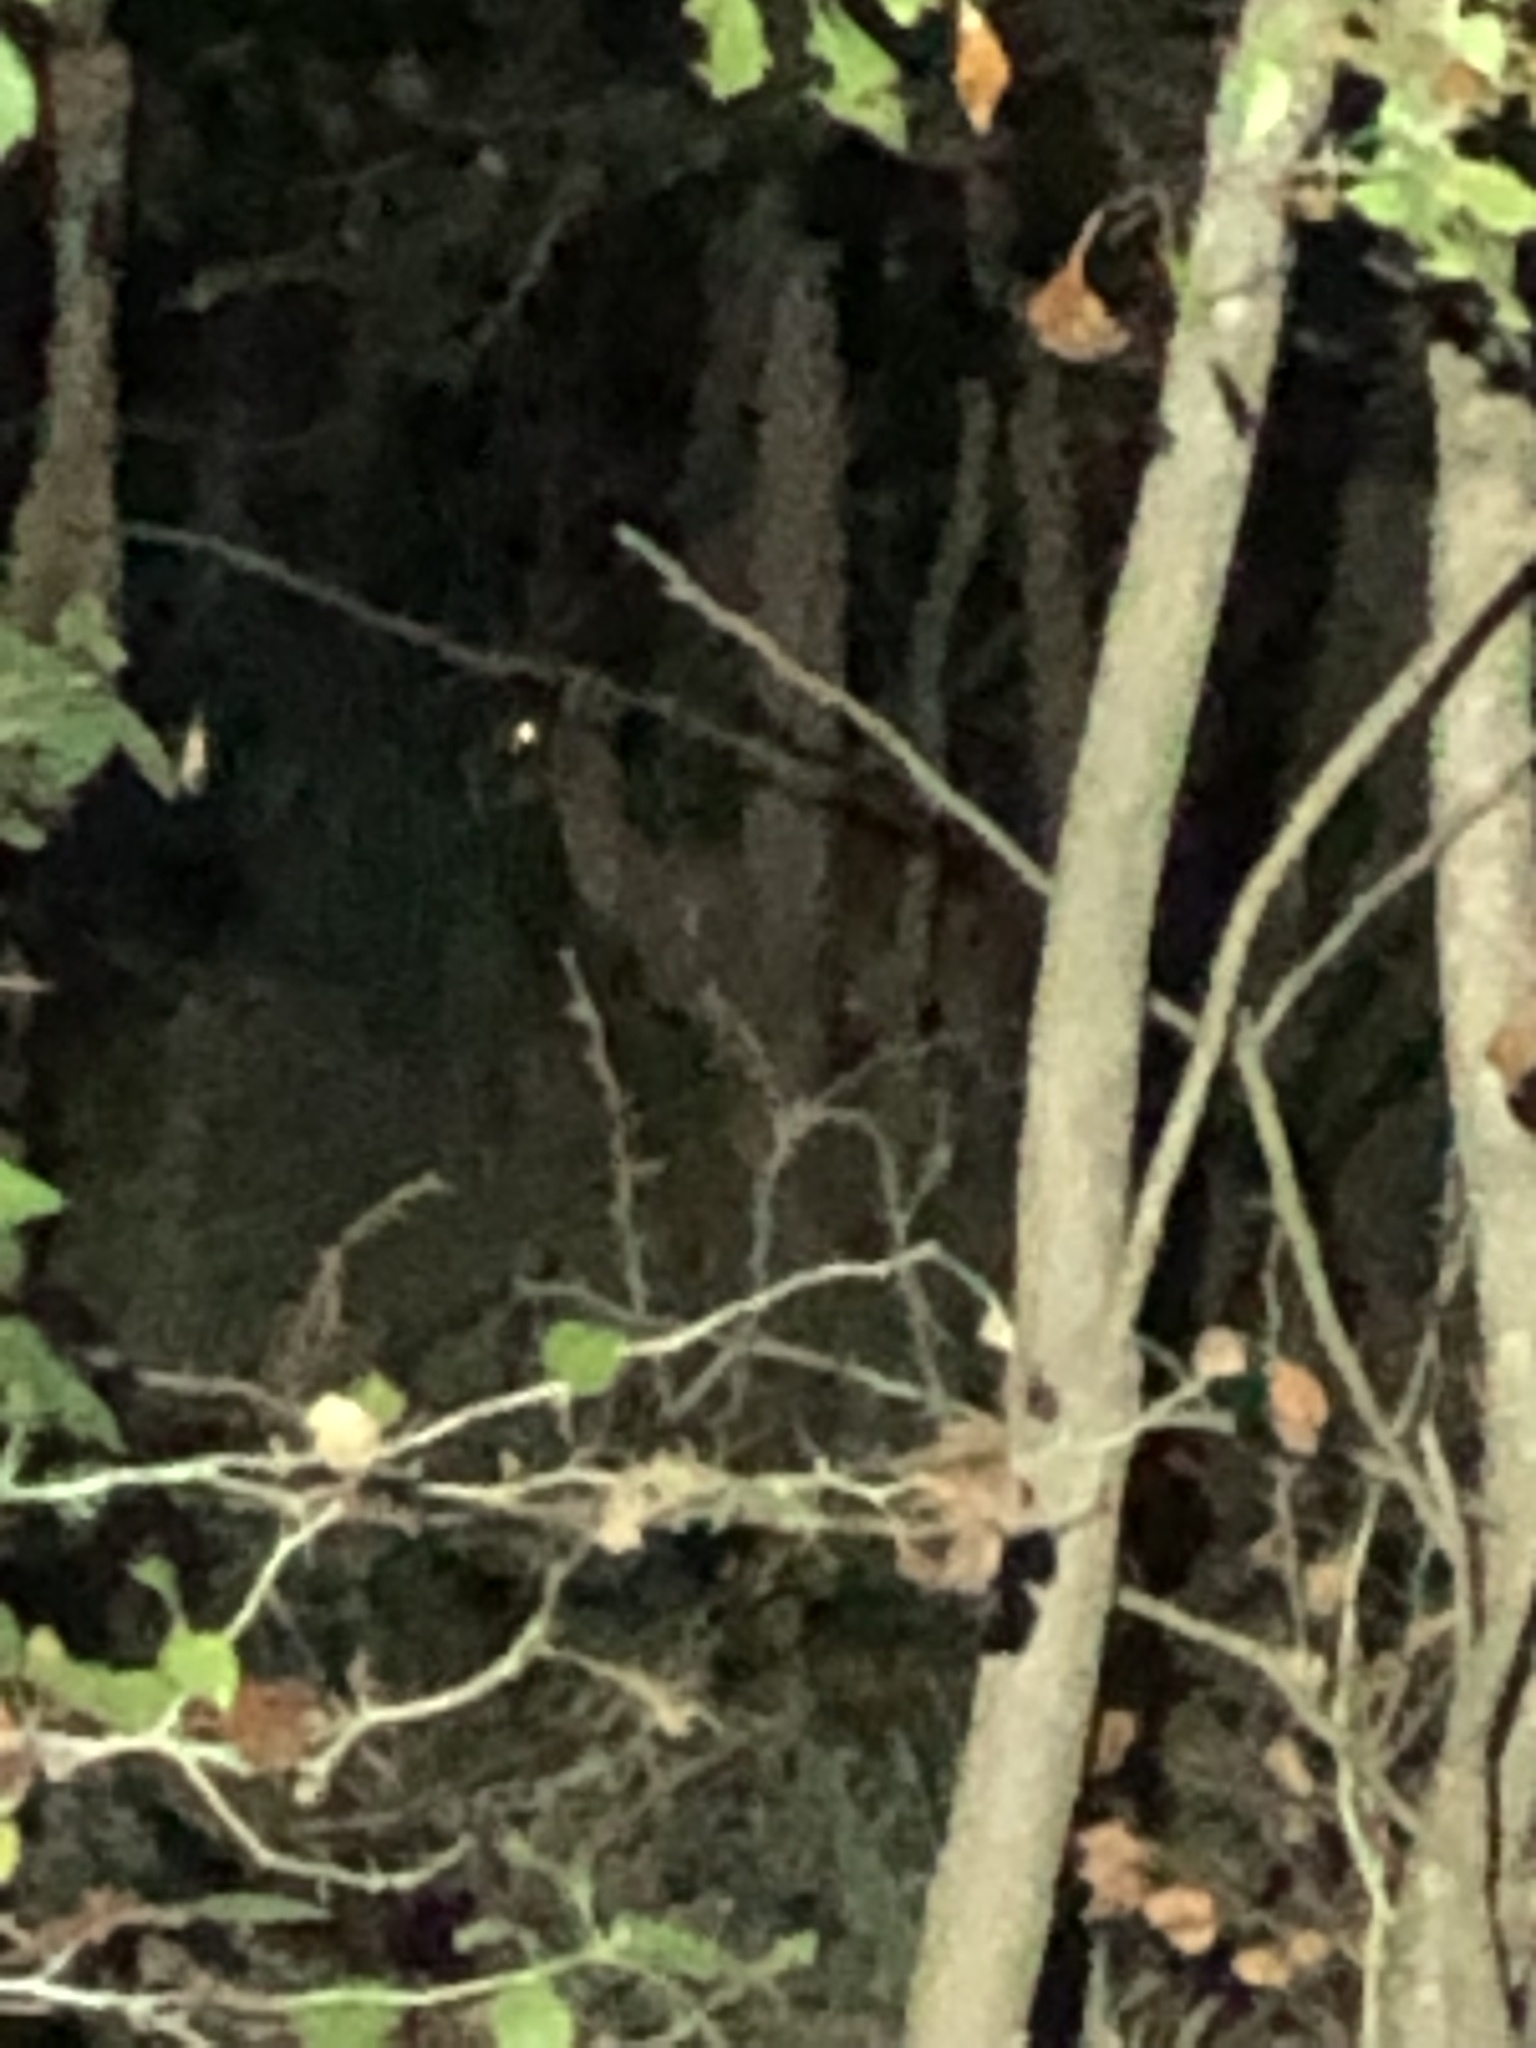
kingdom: Animalia
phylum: Chordata
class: Mammalia
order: Artiodactyla
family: Cervidae
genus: Odocoileus
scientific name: Odocoileus virginianus
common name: White-tailed deer
